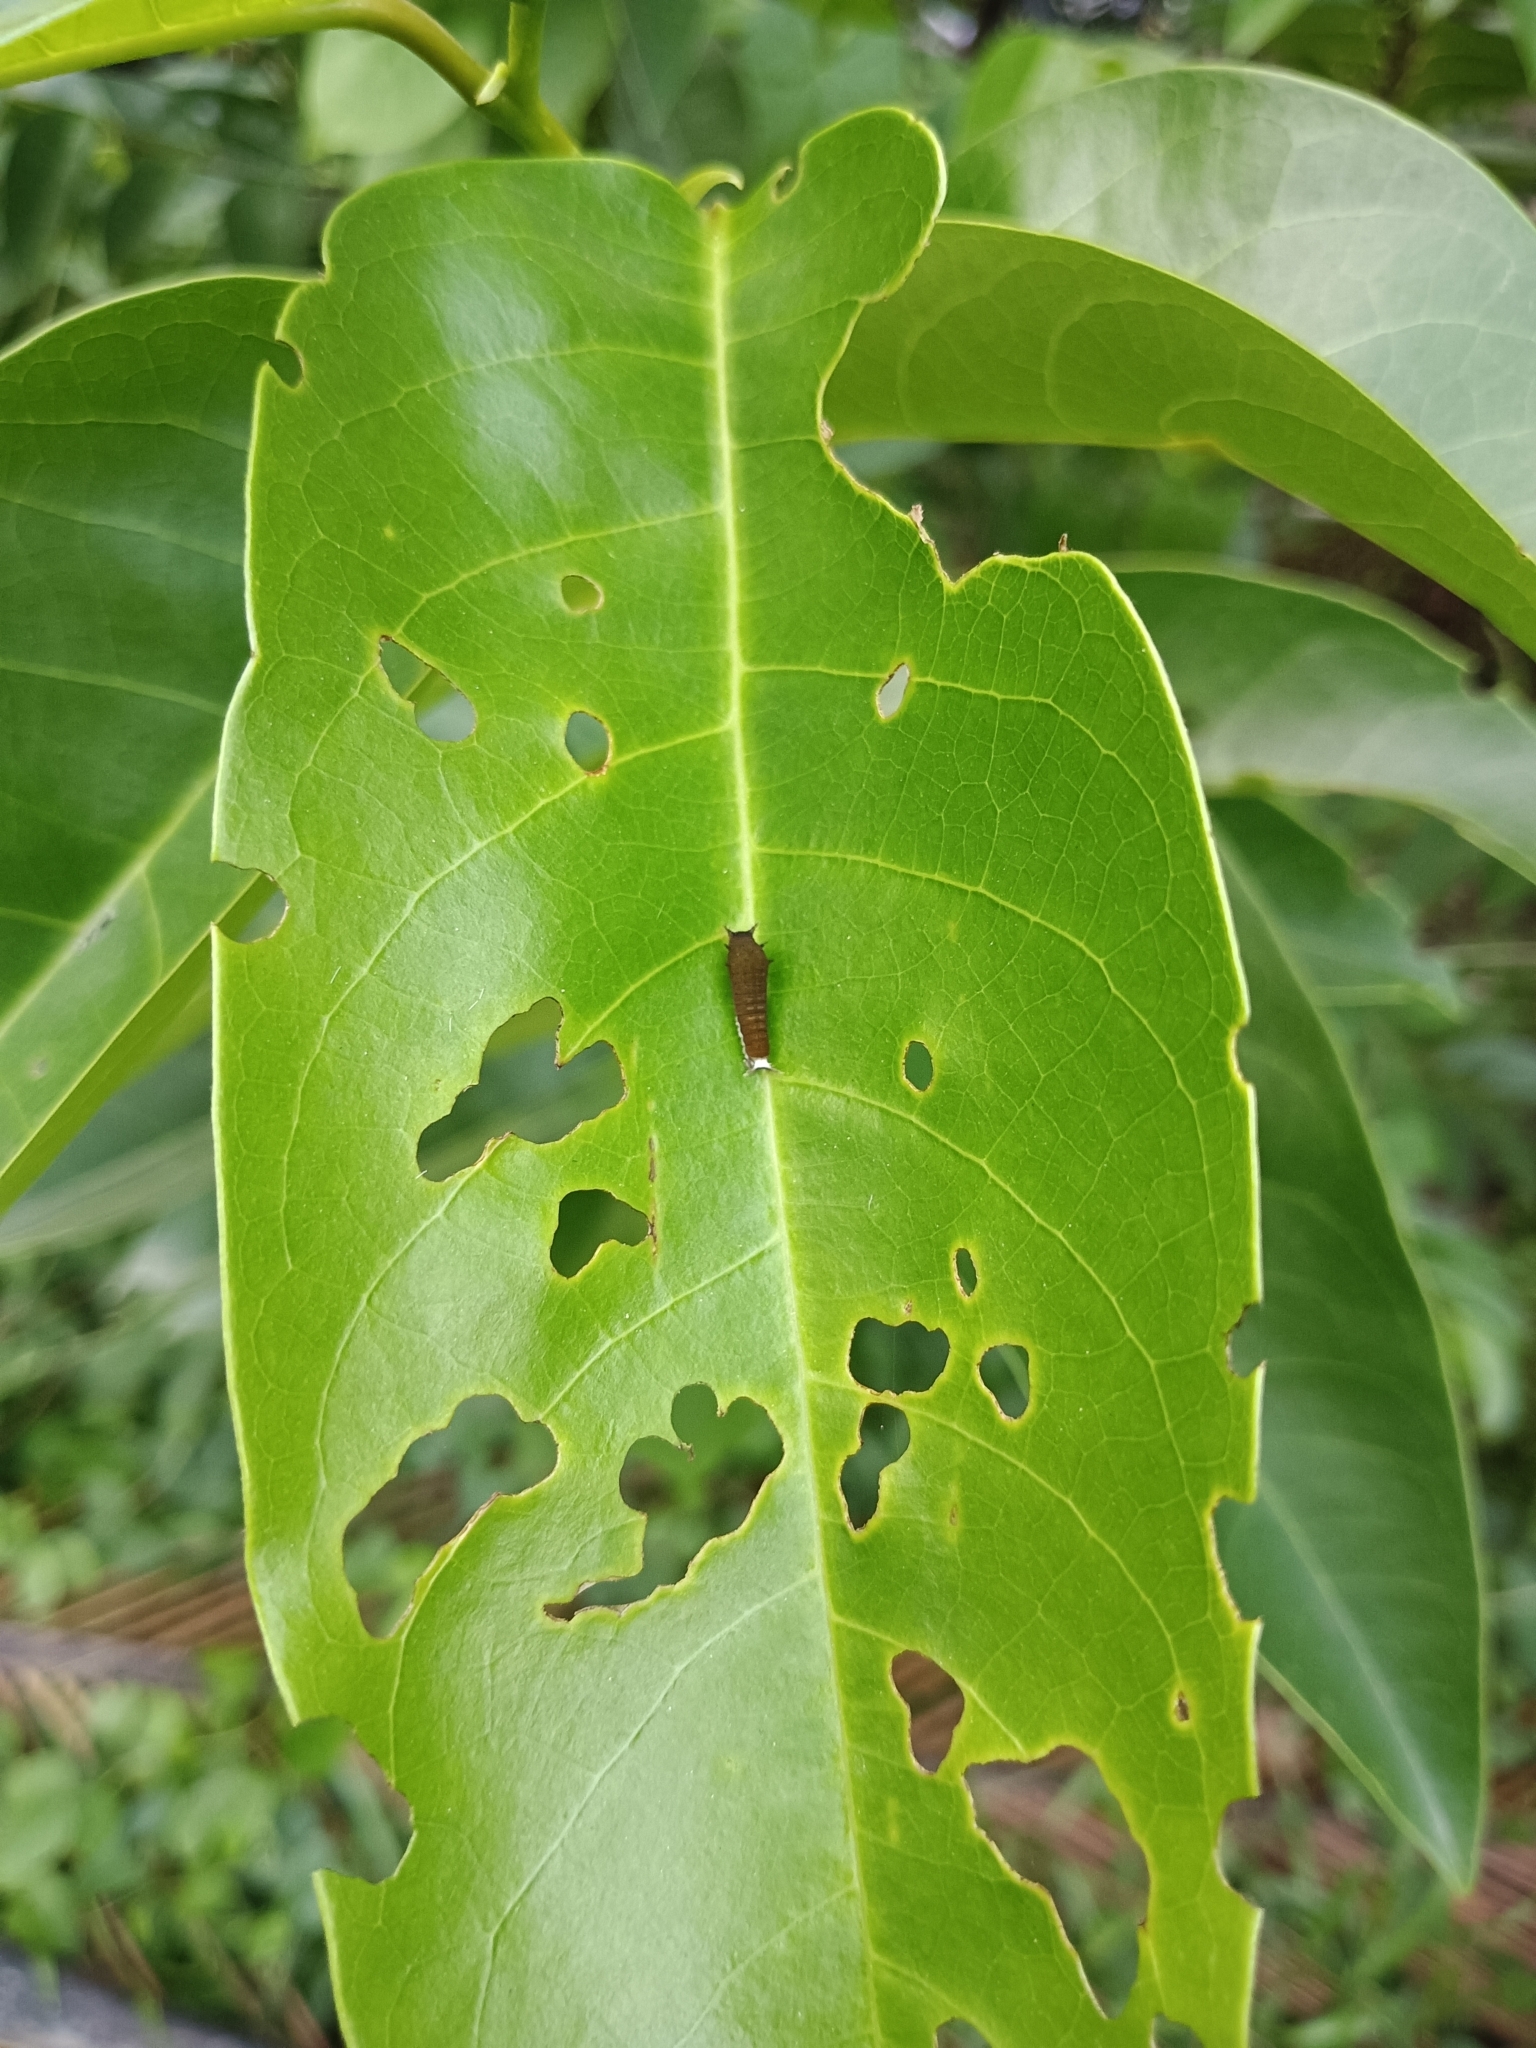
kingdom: Animalia
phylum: Arthropoda
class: Insecta
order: Lepidoptera
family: Papilionidae
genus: Graphium
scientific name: Graphium doson
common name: Common jay
